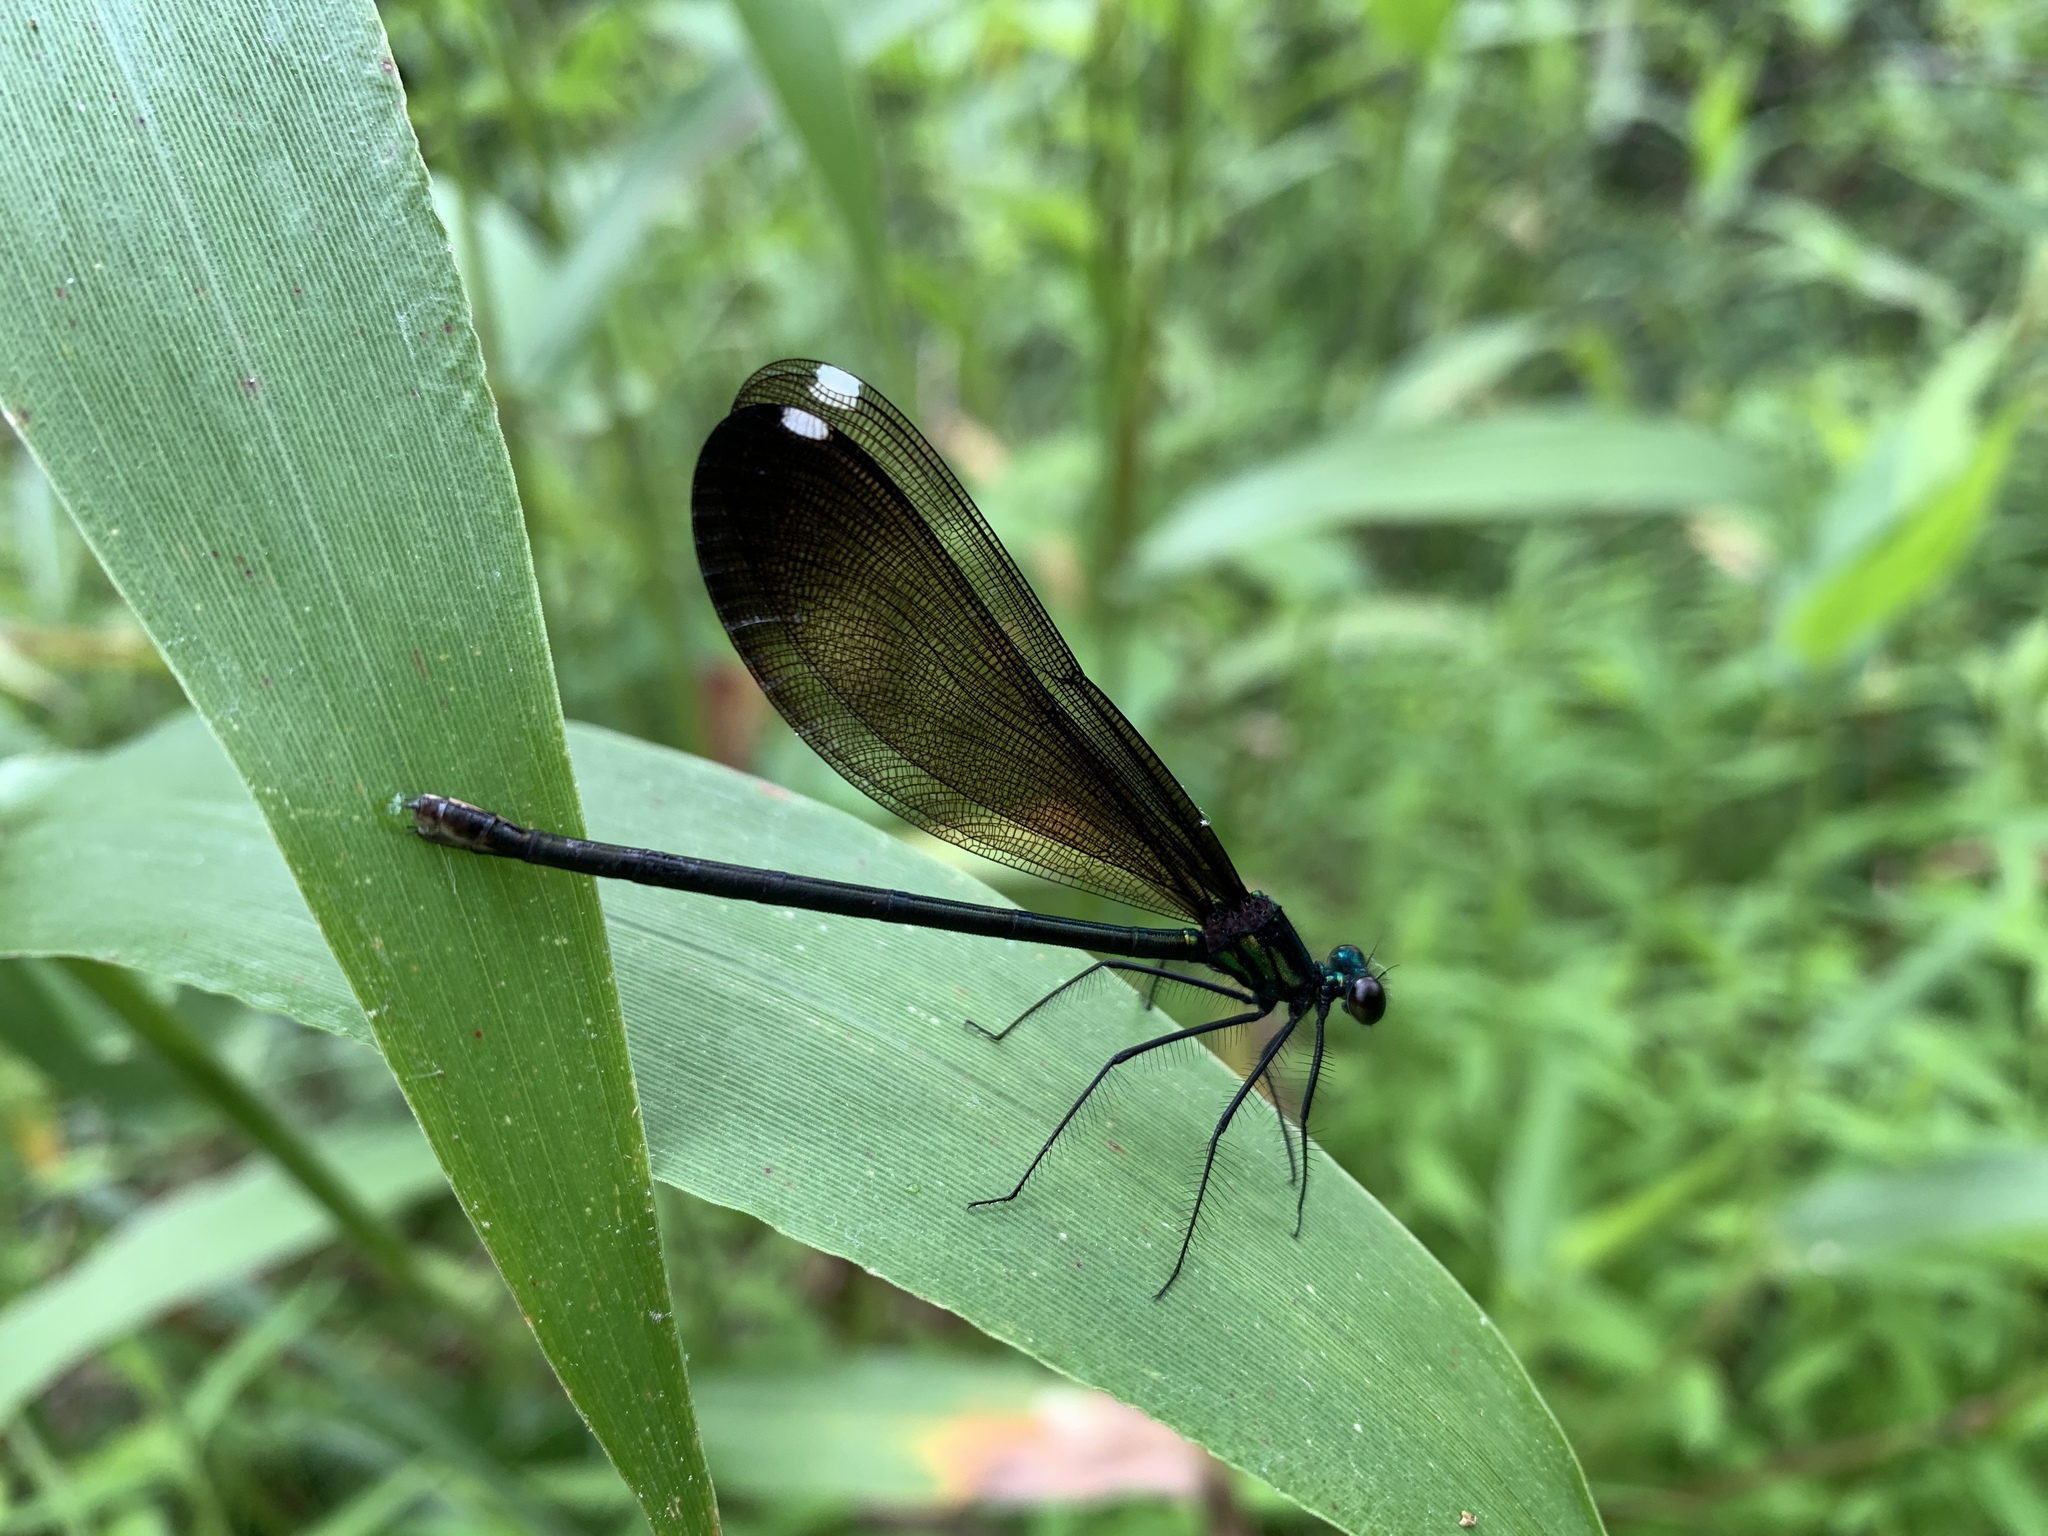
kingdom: Animalia
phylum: Arthropoda
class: Insecta
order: Odonata
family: Calopterygidae
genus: Calopteryx
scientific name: Calopteryx maculata
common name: Ebony jewelwing
